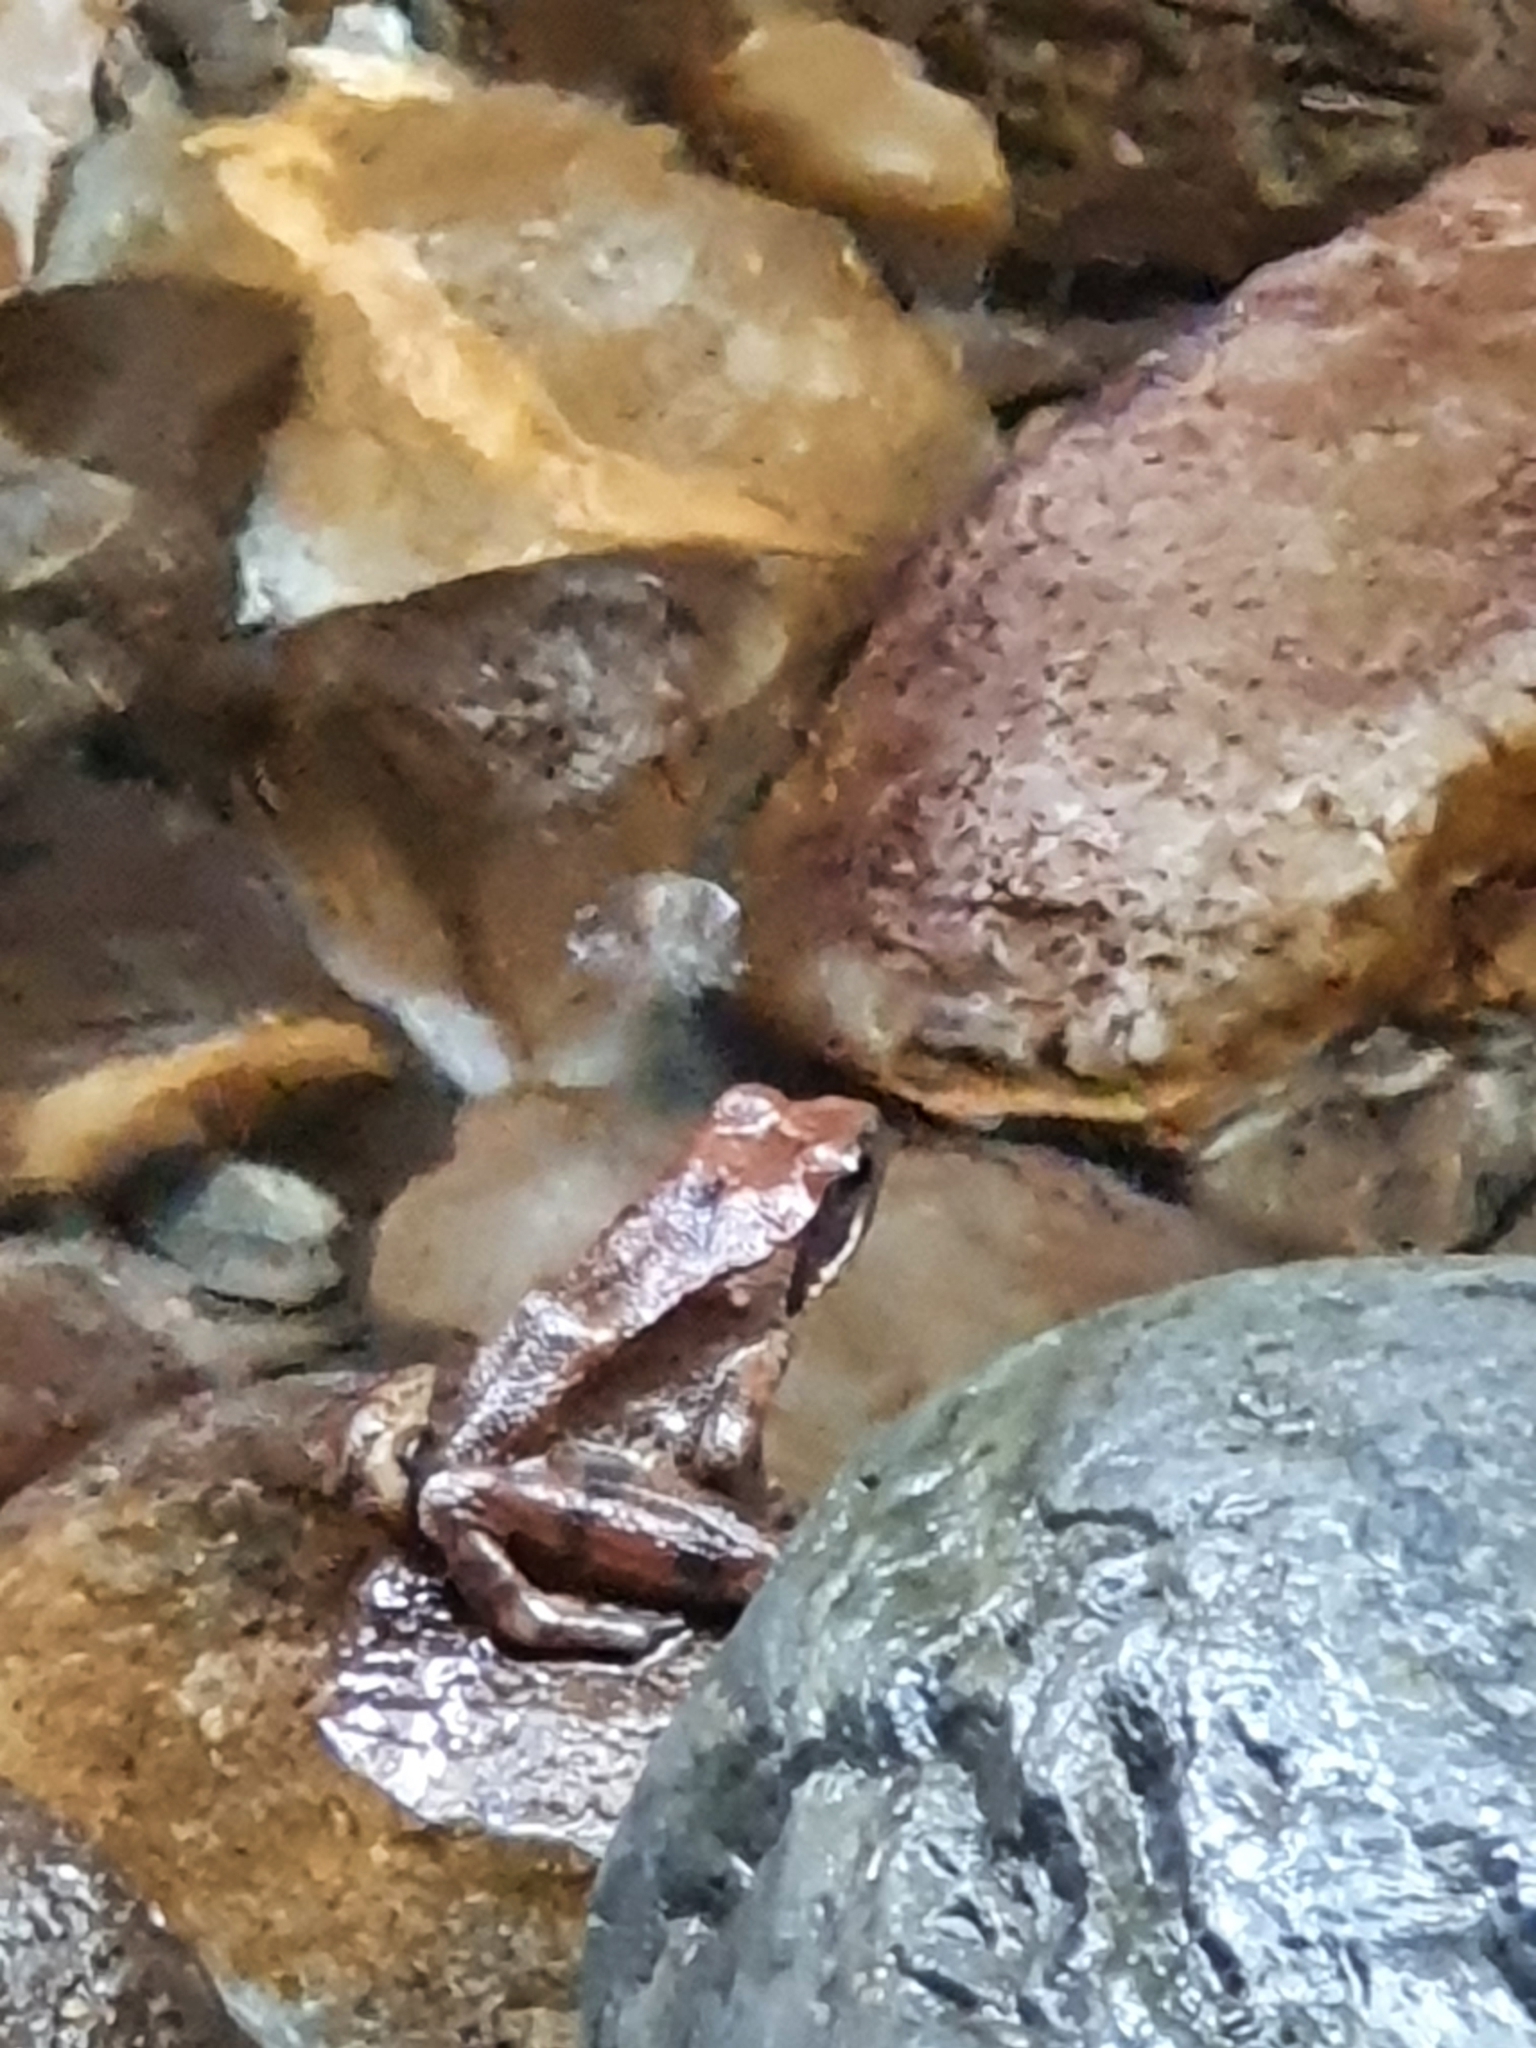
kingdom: Animalia
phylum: Chordata
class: Amphibia
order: Anura
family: Ranidae
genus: Rana
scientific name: Rana italica
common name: Italian stream frog
